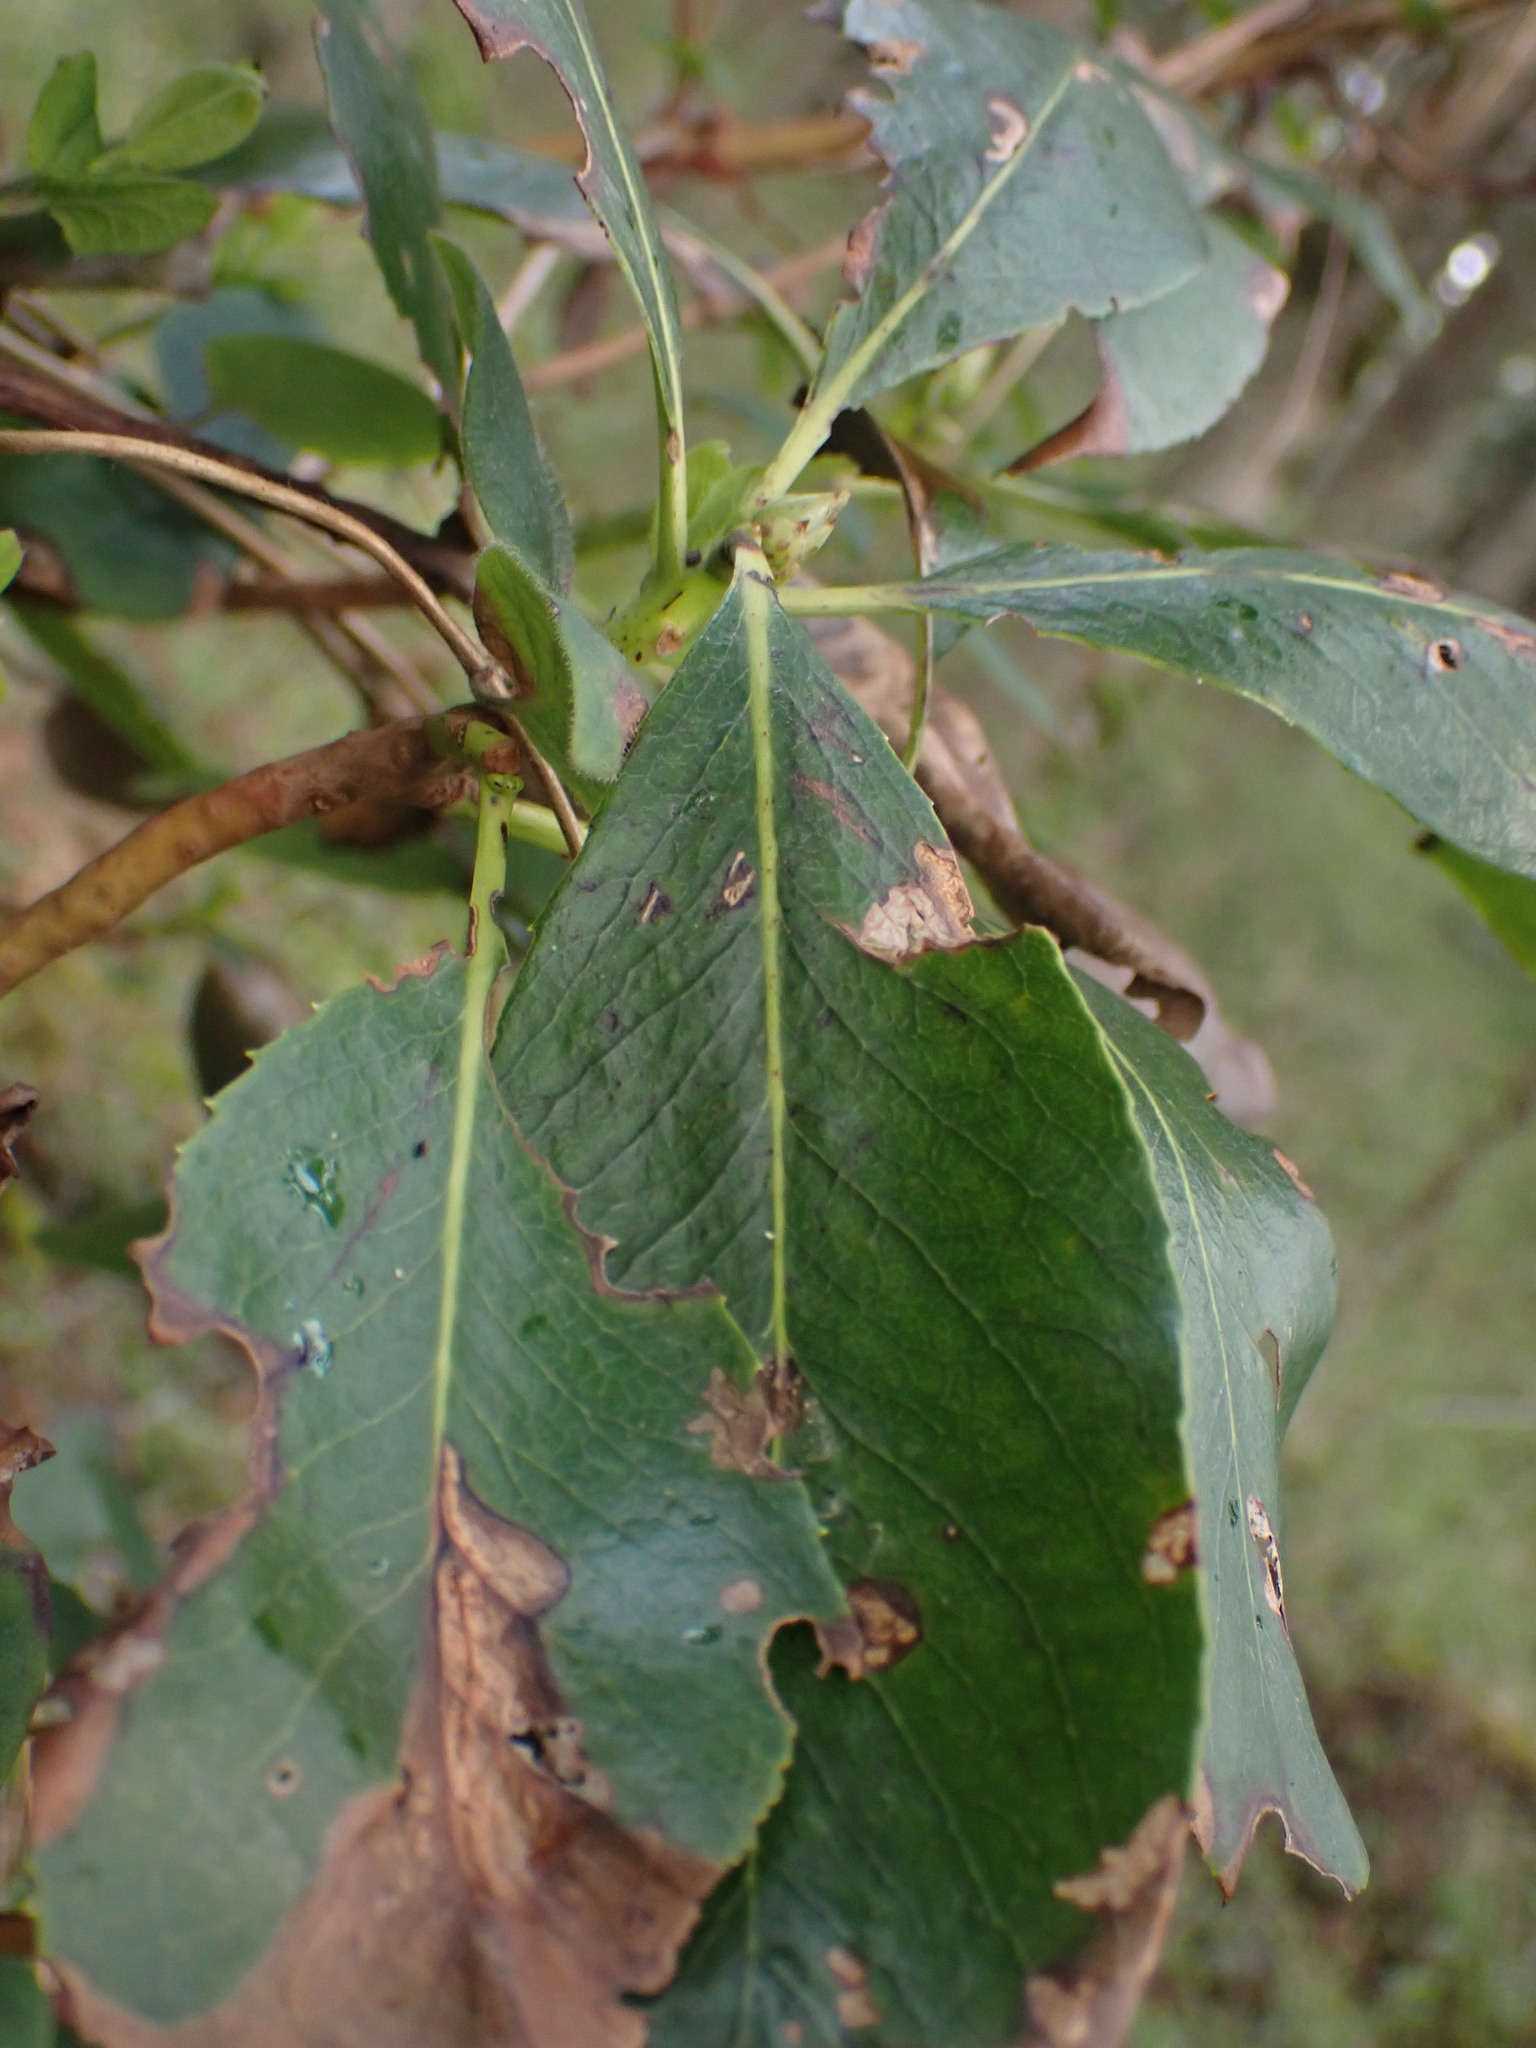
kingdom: Plantae
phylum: Tracheophyta
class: Magnoliopsida
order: Ericales
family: Ericaceae
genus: Arbutus
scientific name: Arbutus menziesii
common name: Pacific madrone
